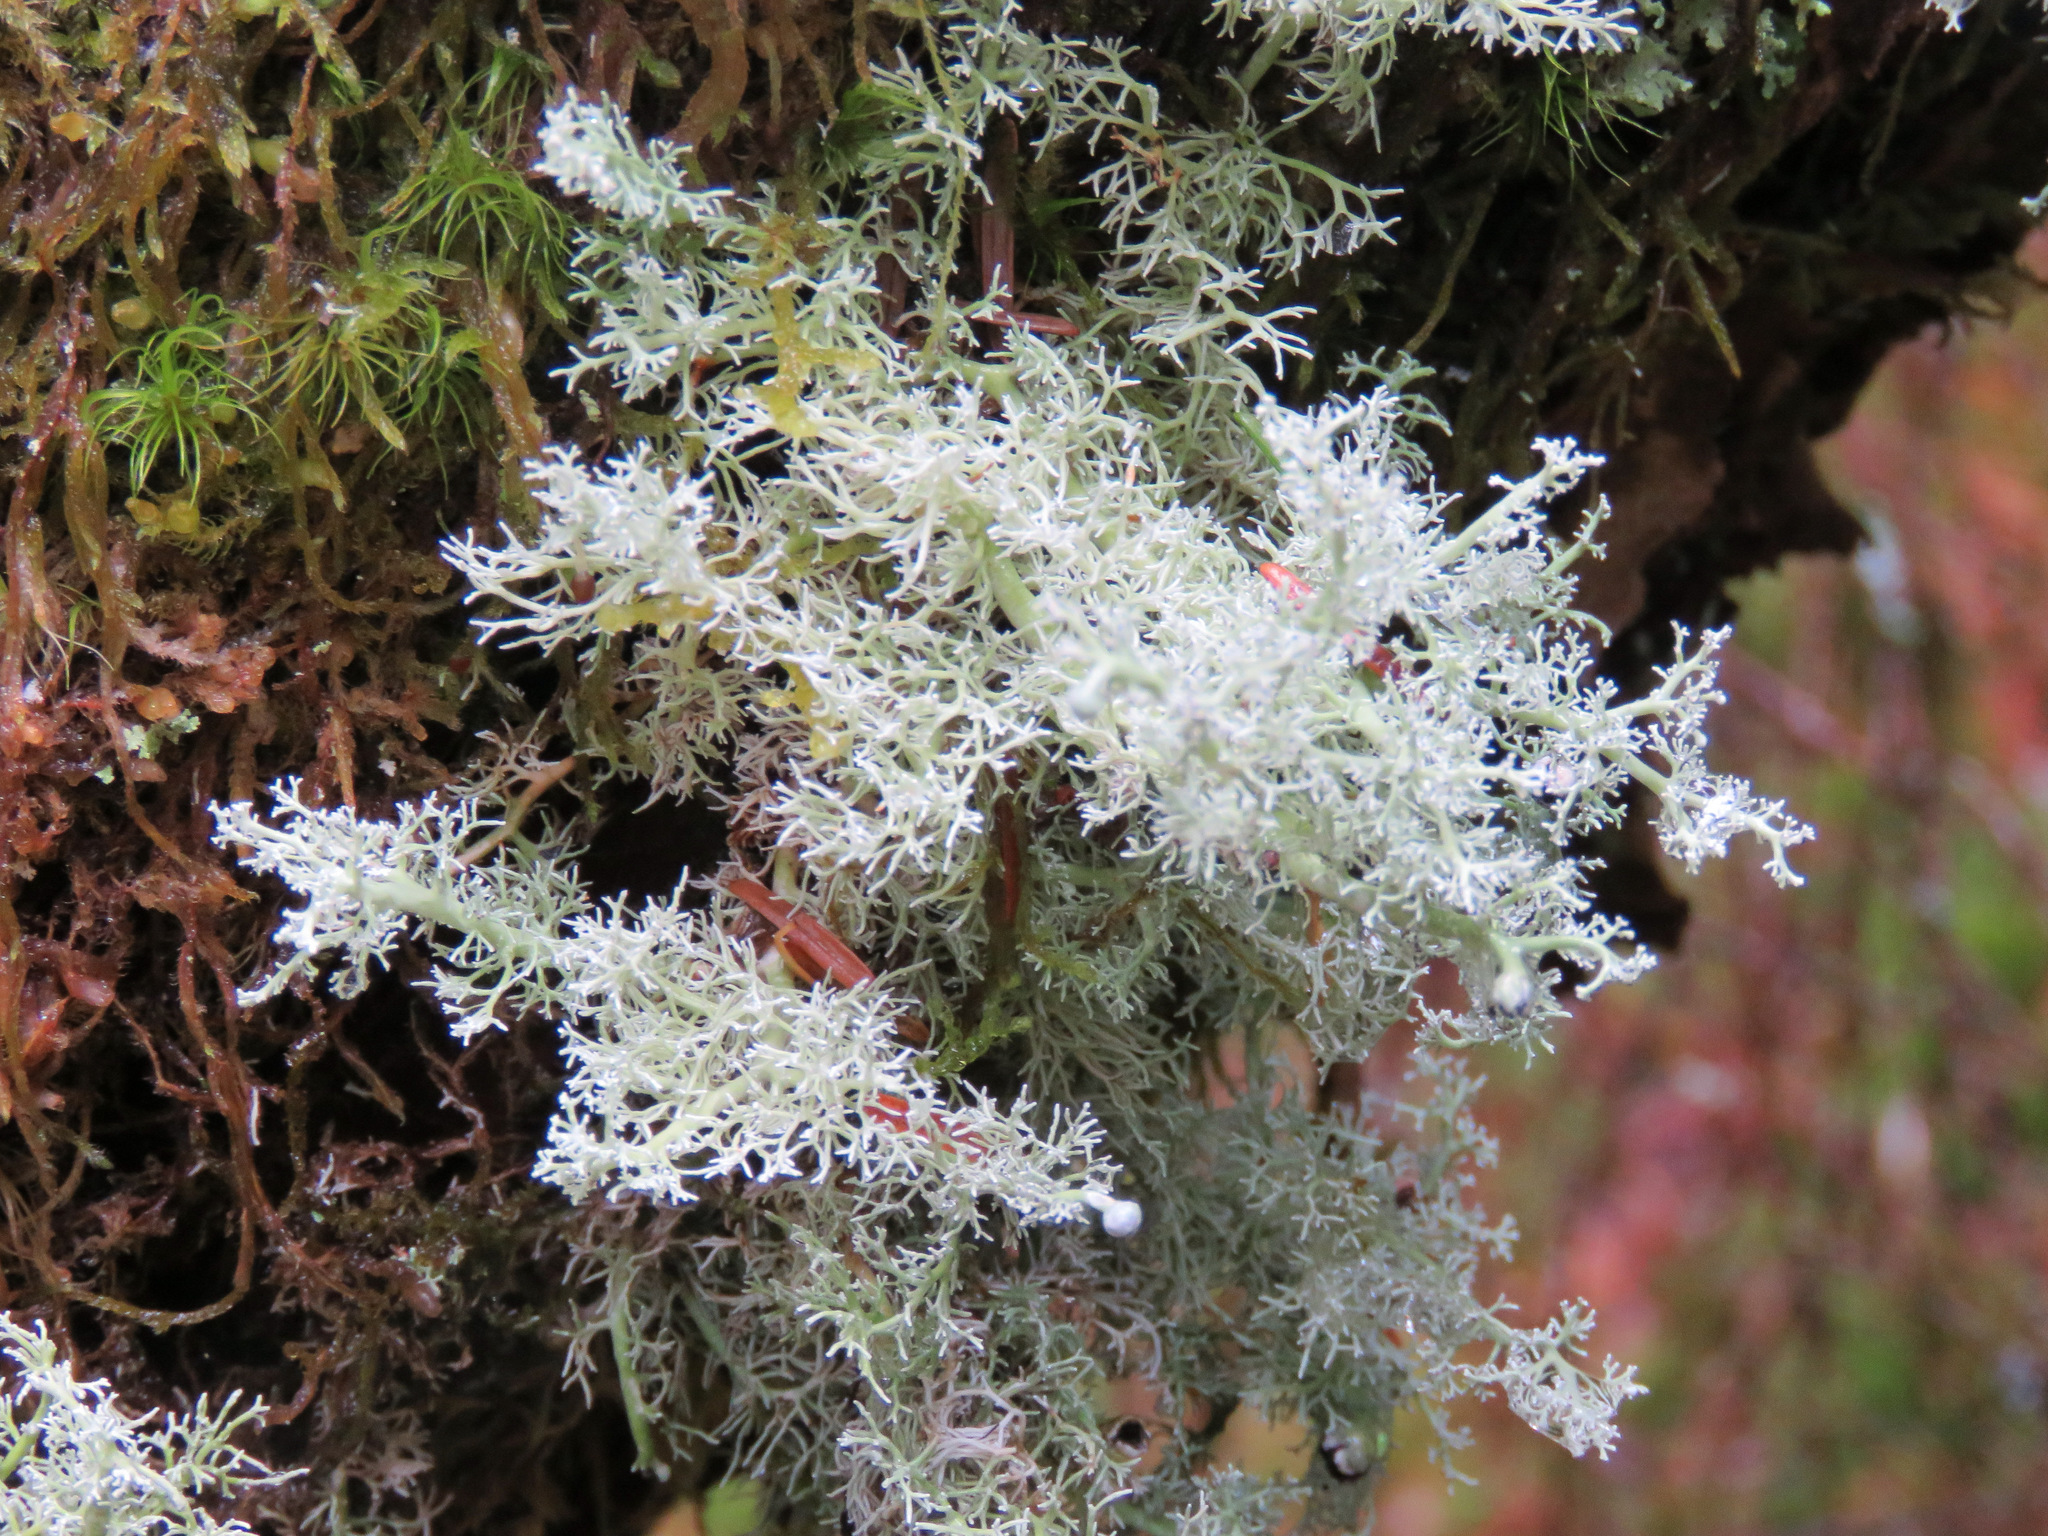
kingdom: Fungi
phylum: Ascomycota
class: Lecanoromycetes
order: Lecanorales
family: Sphaerophoraceae
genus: Sphaerophorus
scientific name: Sphaerophorus globosus
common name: Globe ball lichen
